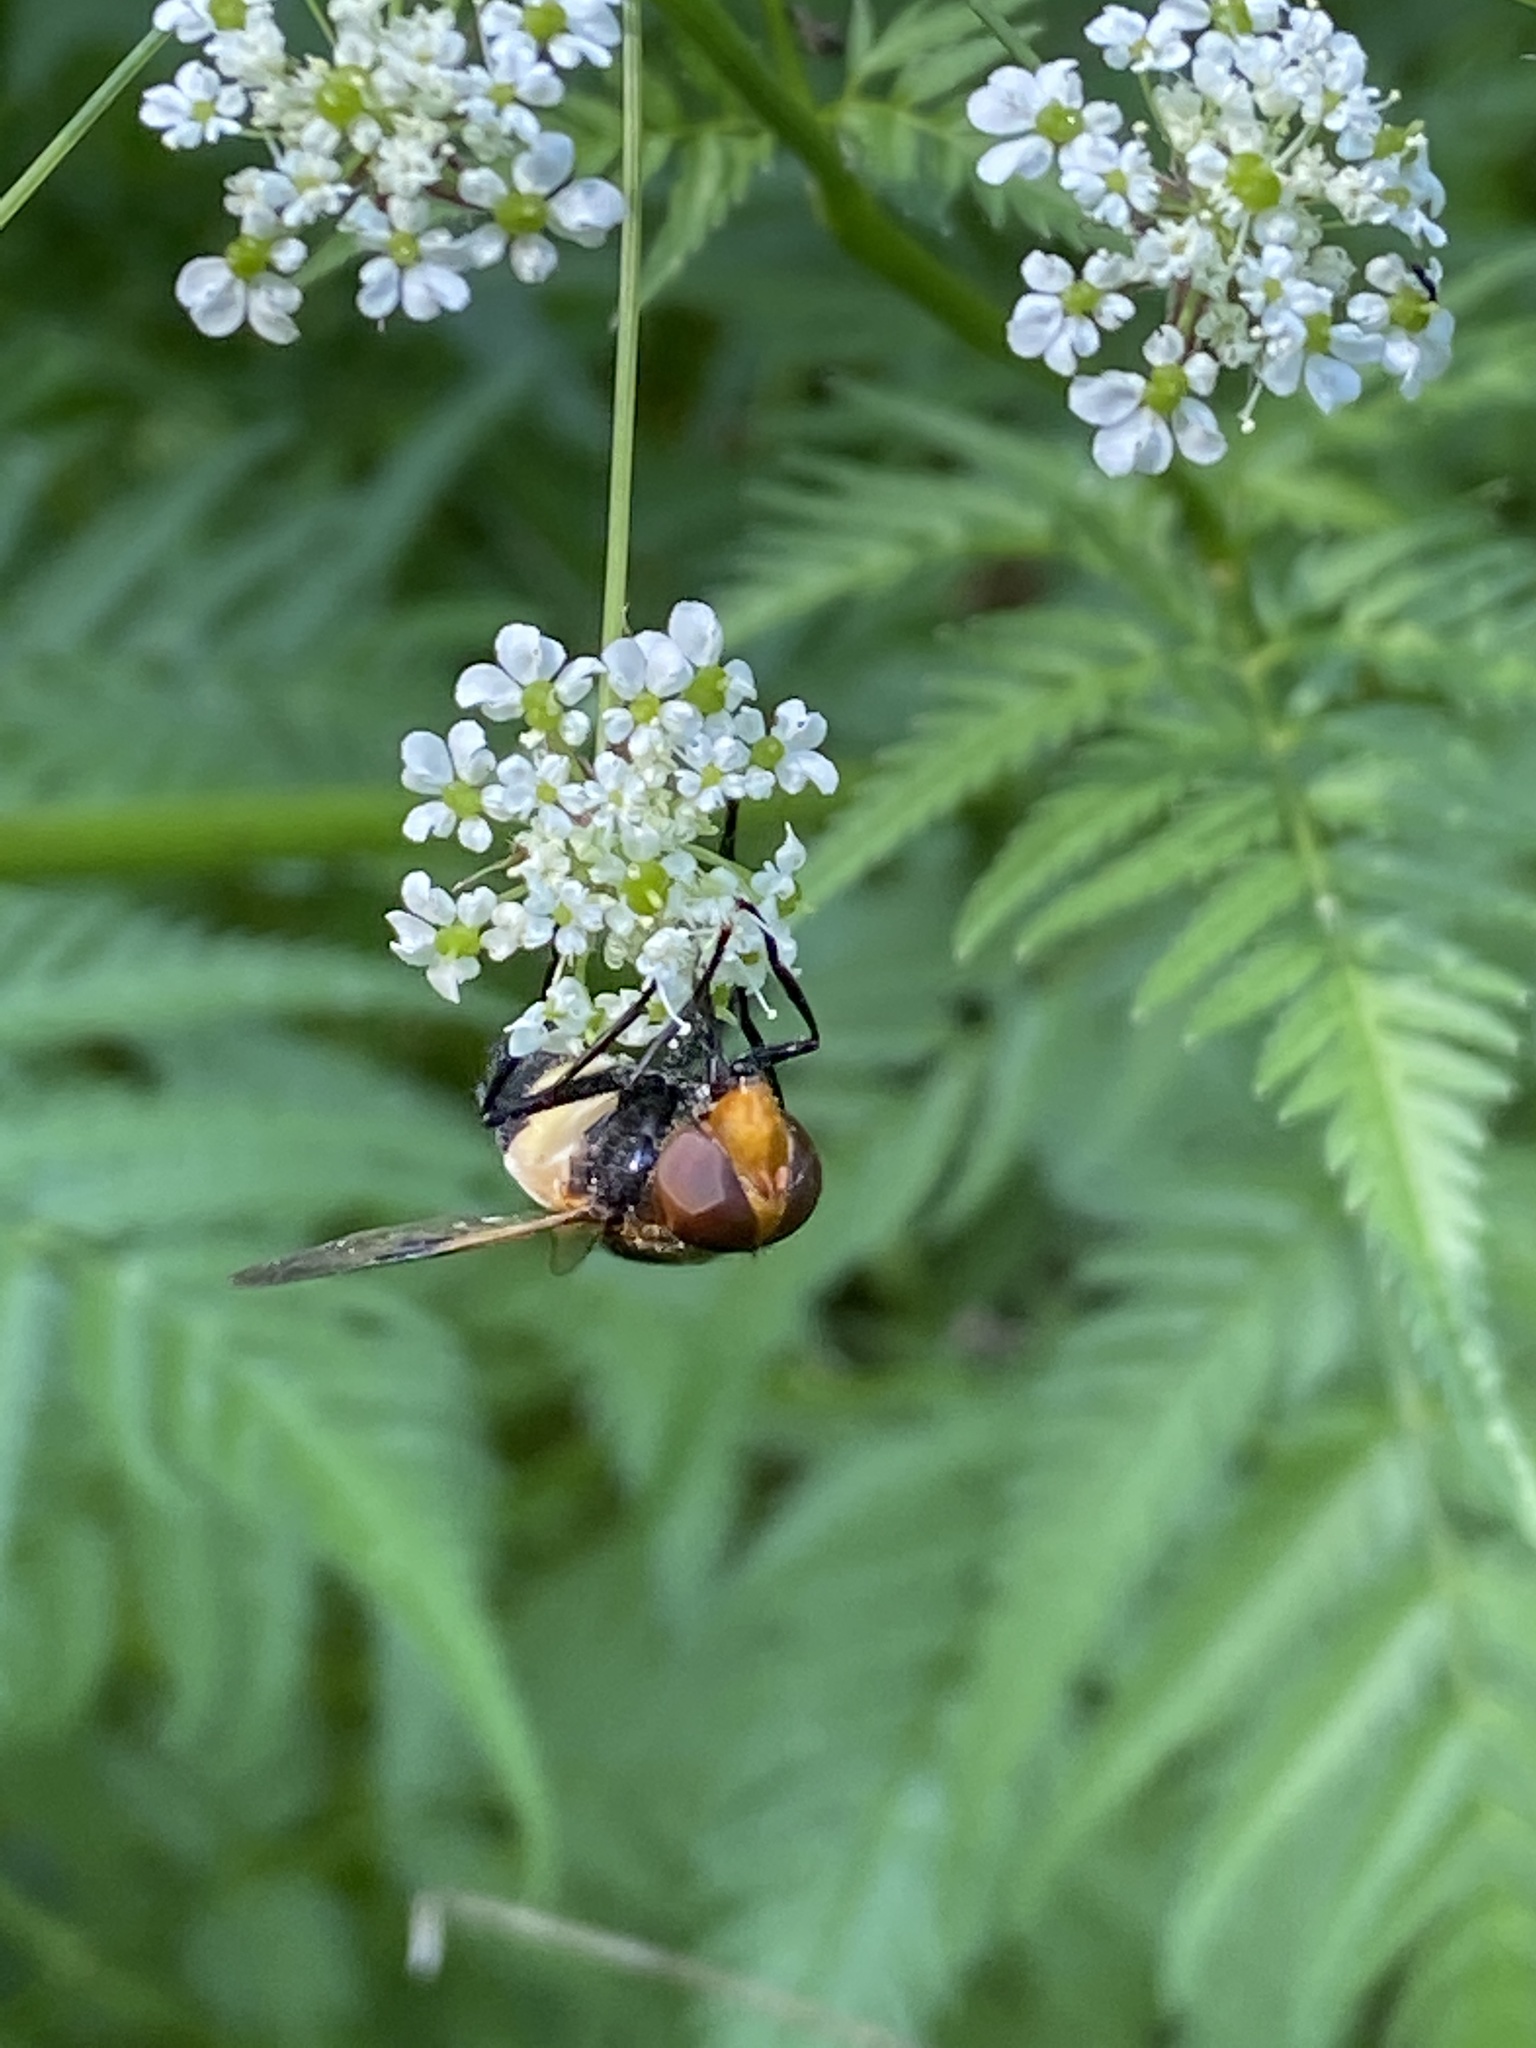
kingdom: Animalia
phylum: Arthropoda
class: Insecta
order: Diptera
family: Syrphidae
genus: Volucella
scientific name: Volucella pellucens
